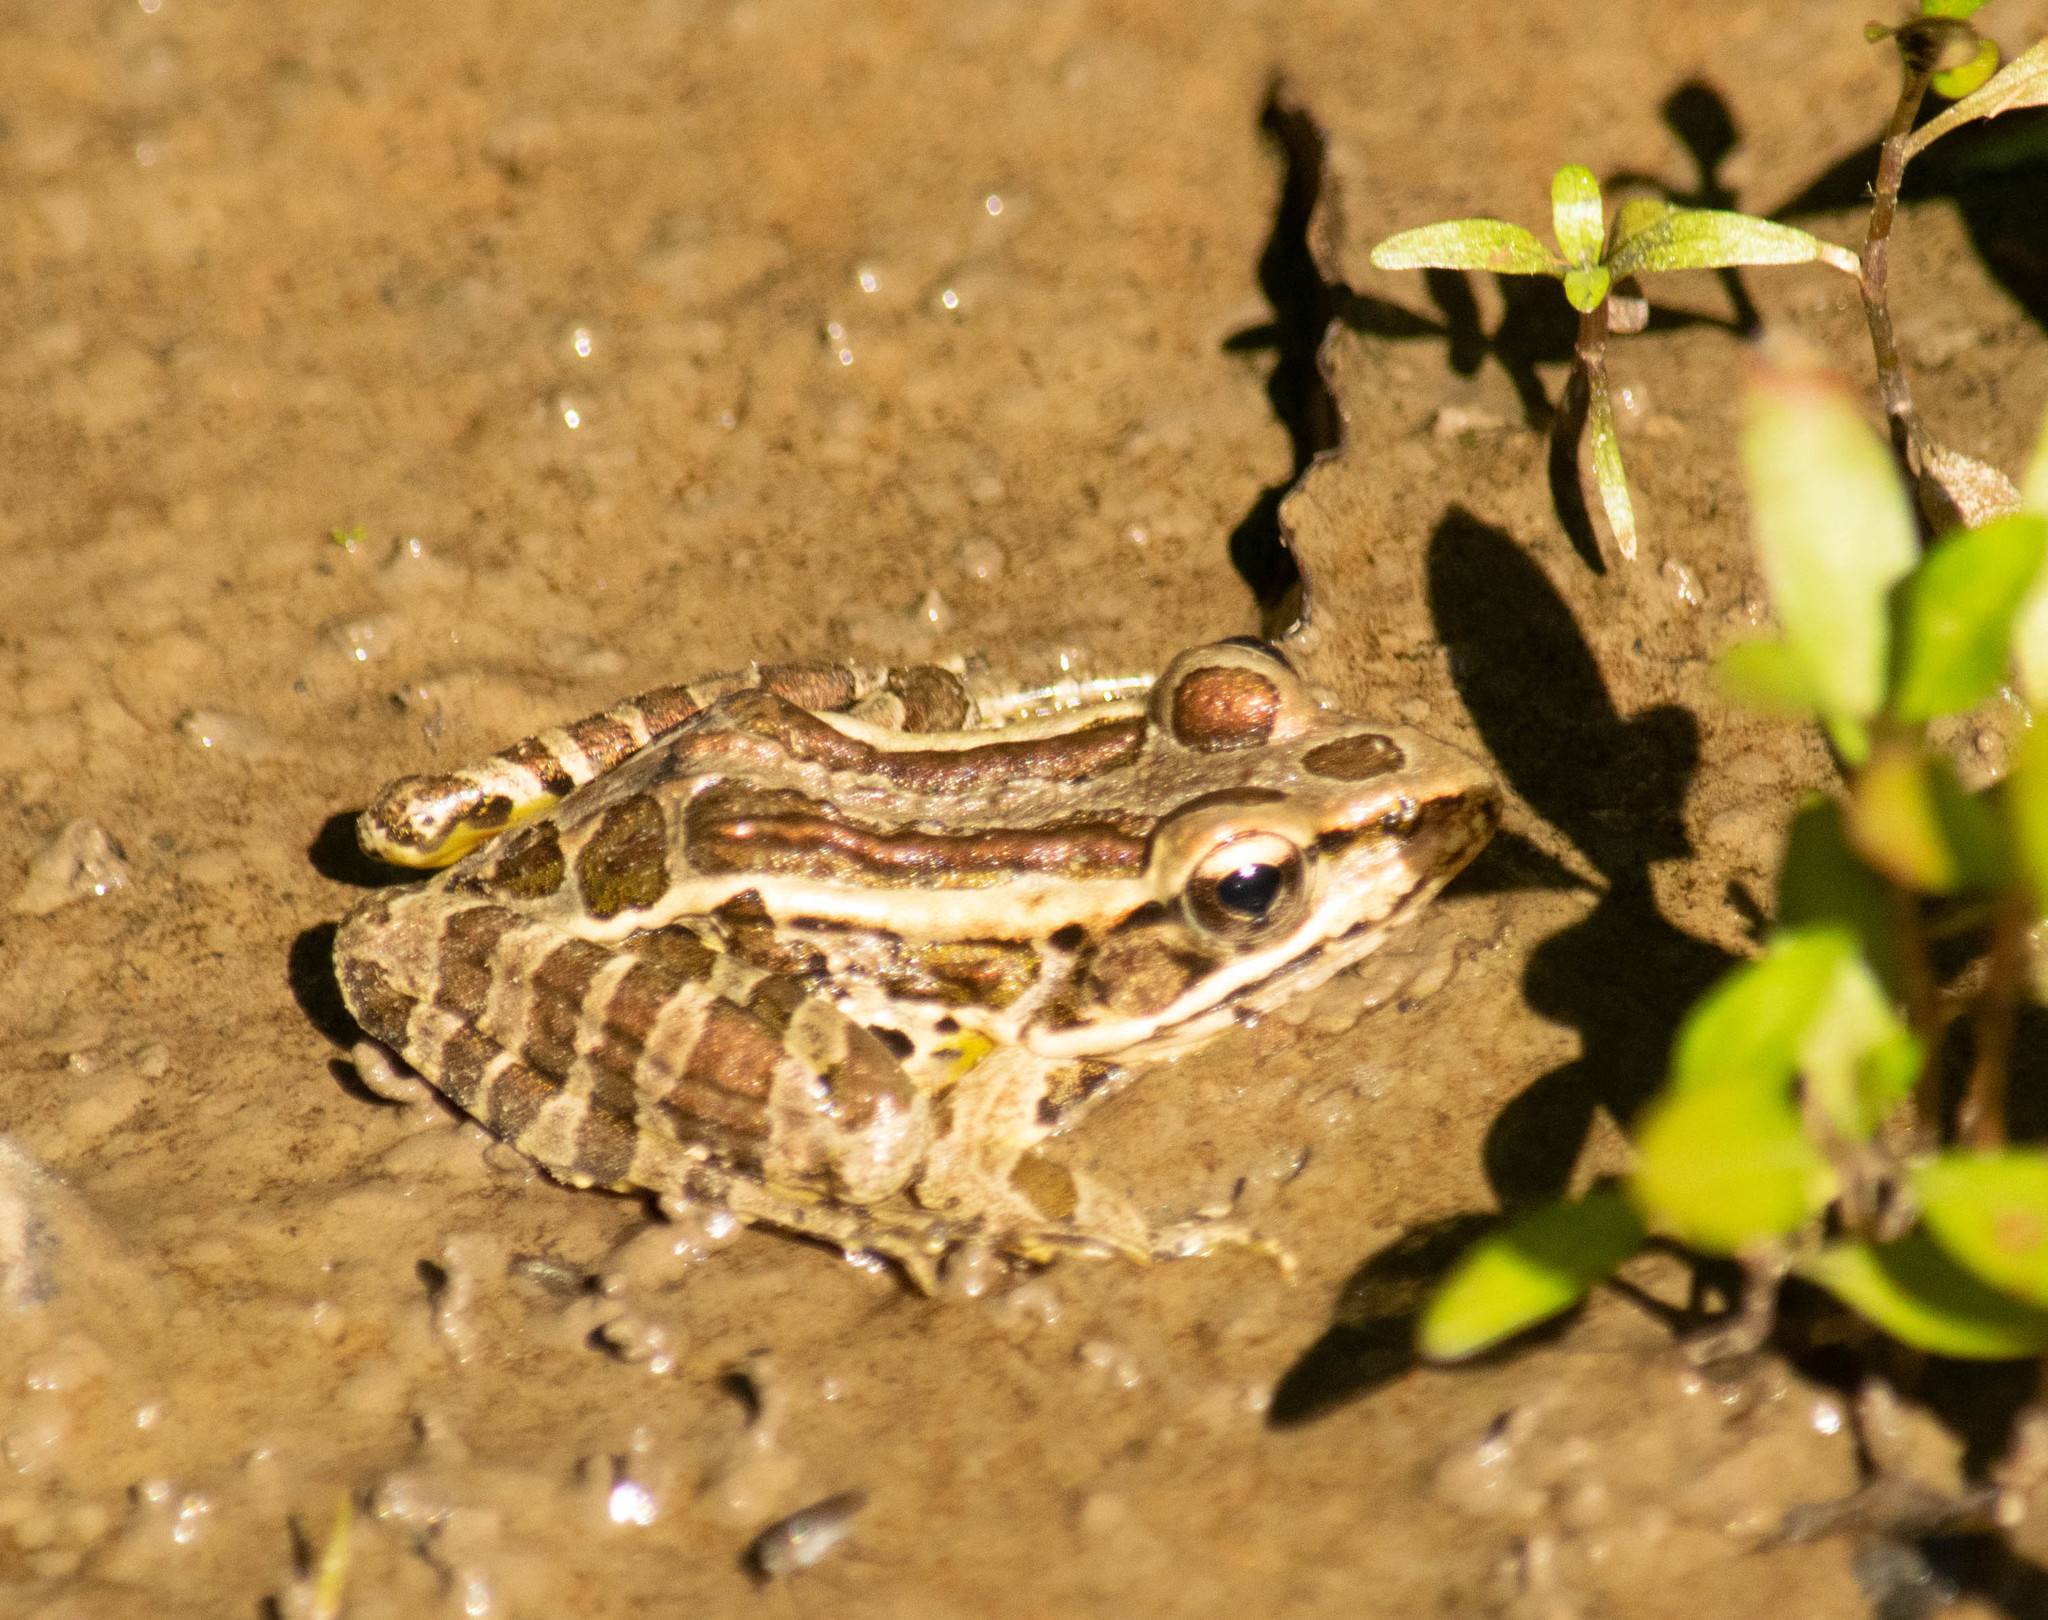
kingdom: Animalia
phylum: Chordata
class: Amphibia
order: Anura
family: Ranidae
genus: Lithobates
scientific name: Lithobates palustris
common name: Pickerel frog
